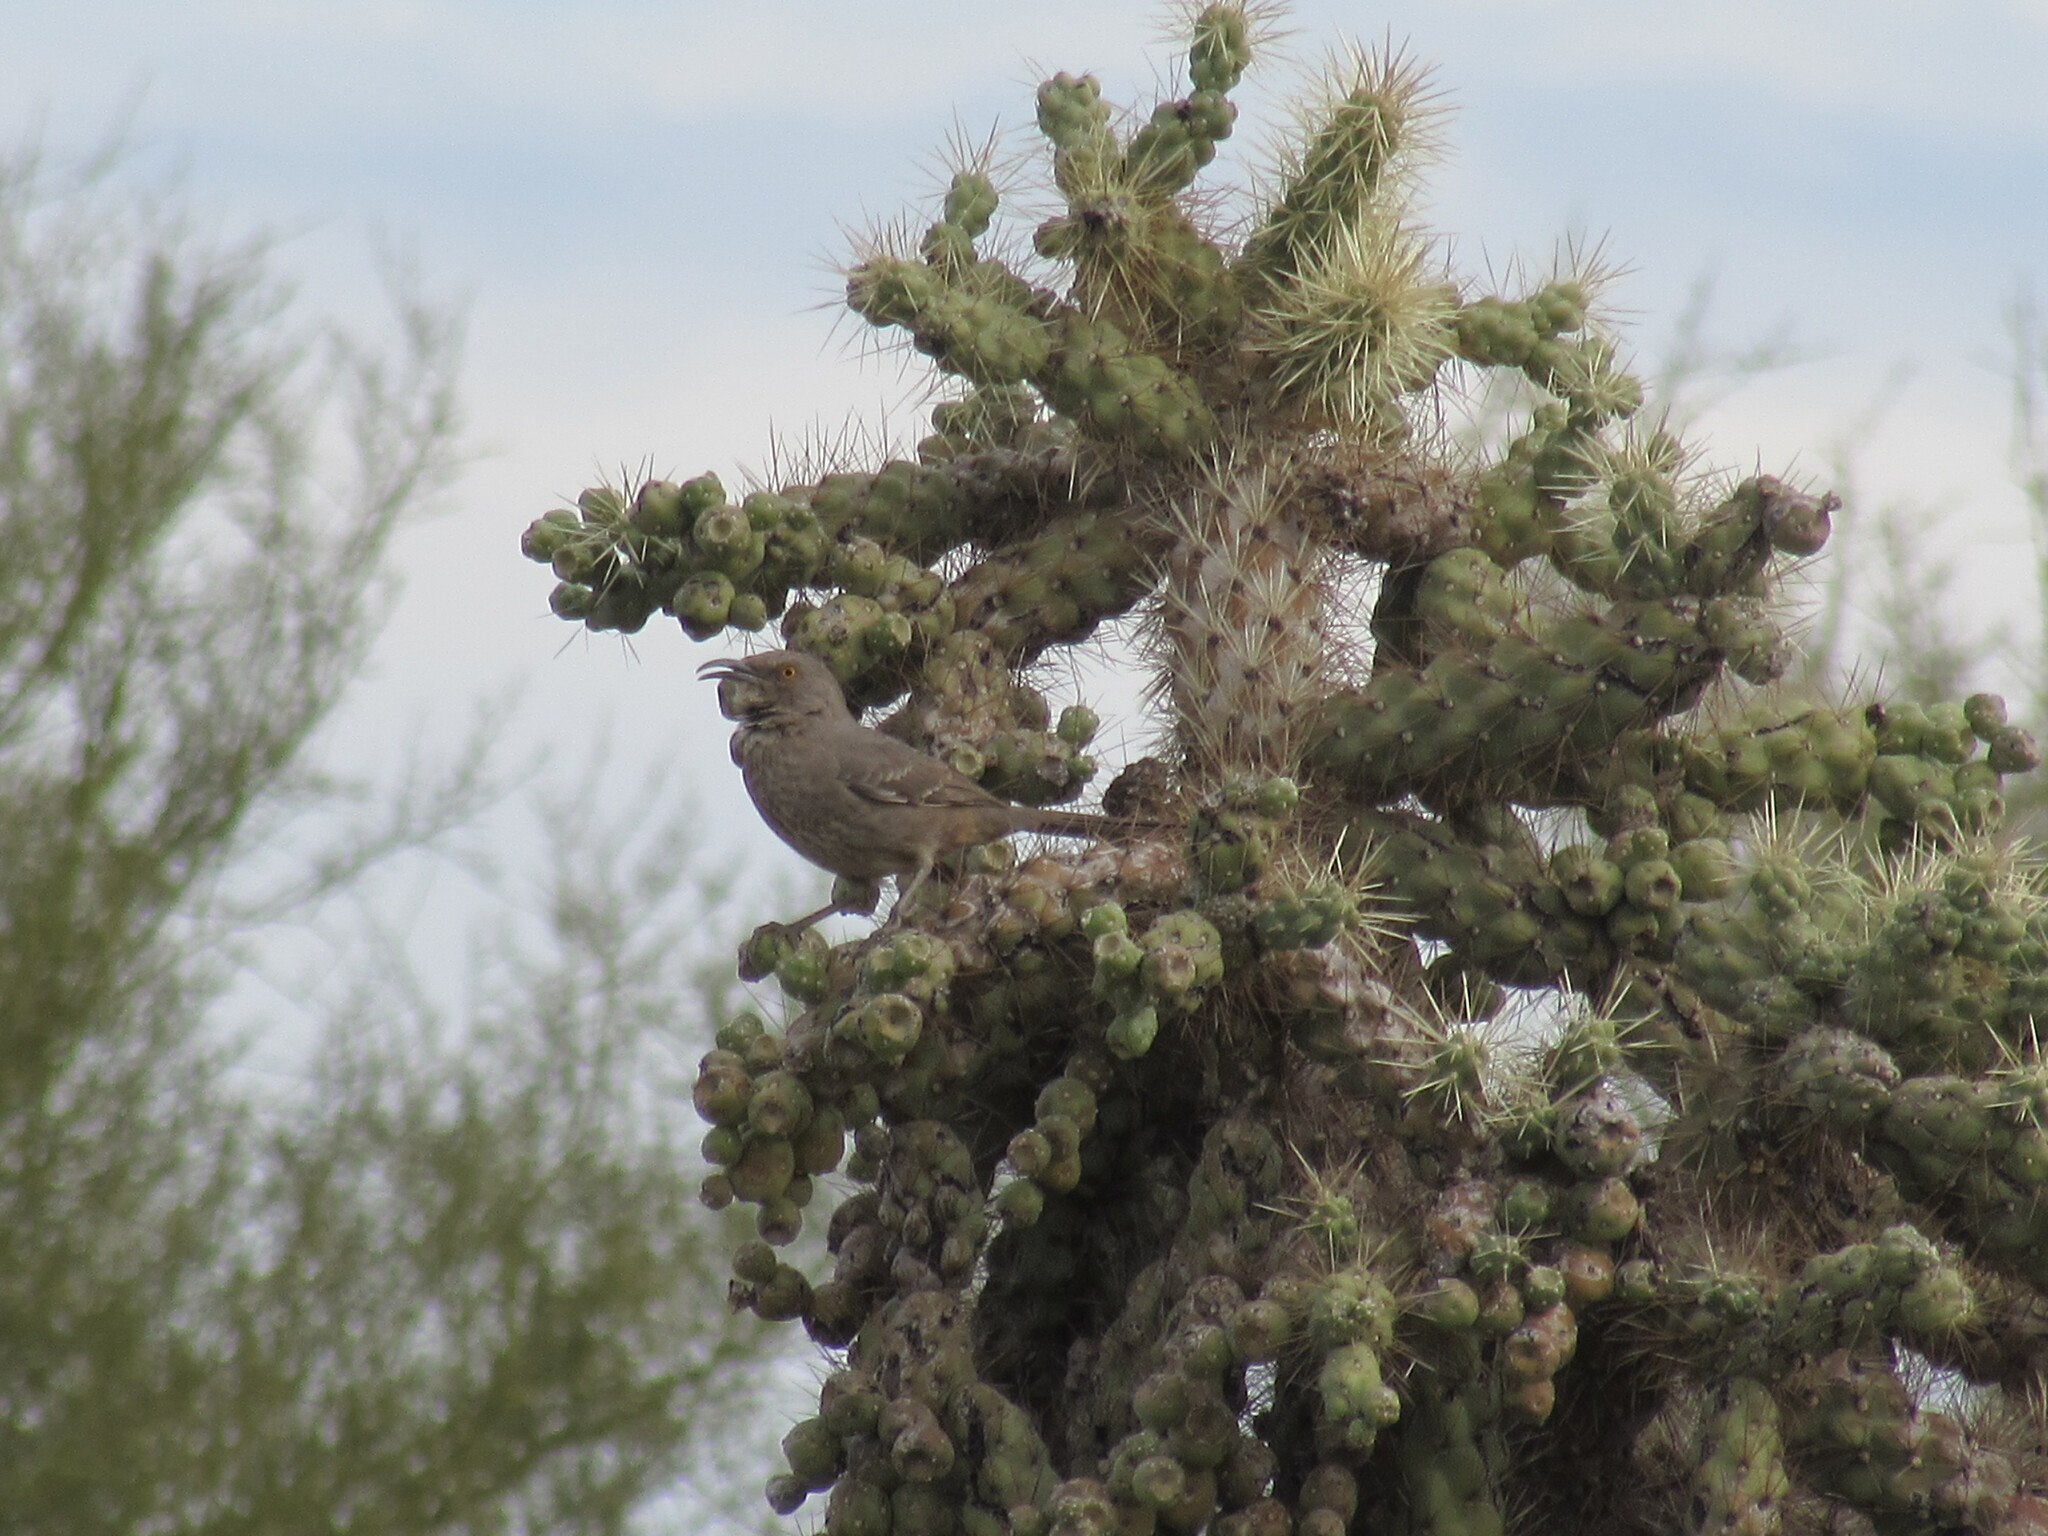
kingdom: Animalia
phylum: Chordata
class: Aves
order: Passeriformes
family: Mimidae
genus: Toxostoma
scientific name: Toxostoma curvirostre
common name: Curve-billed thrasher
